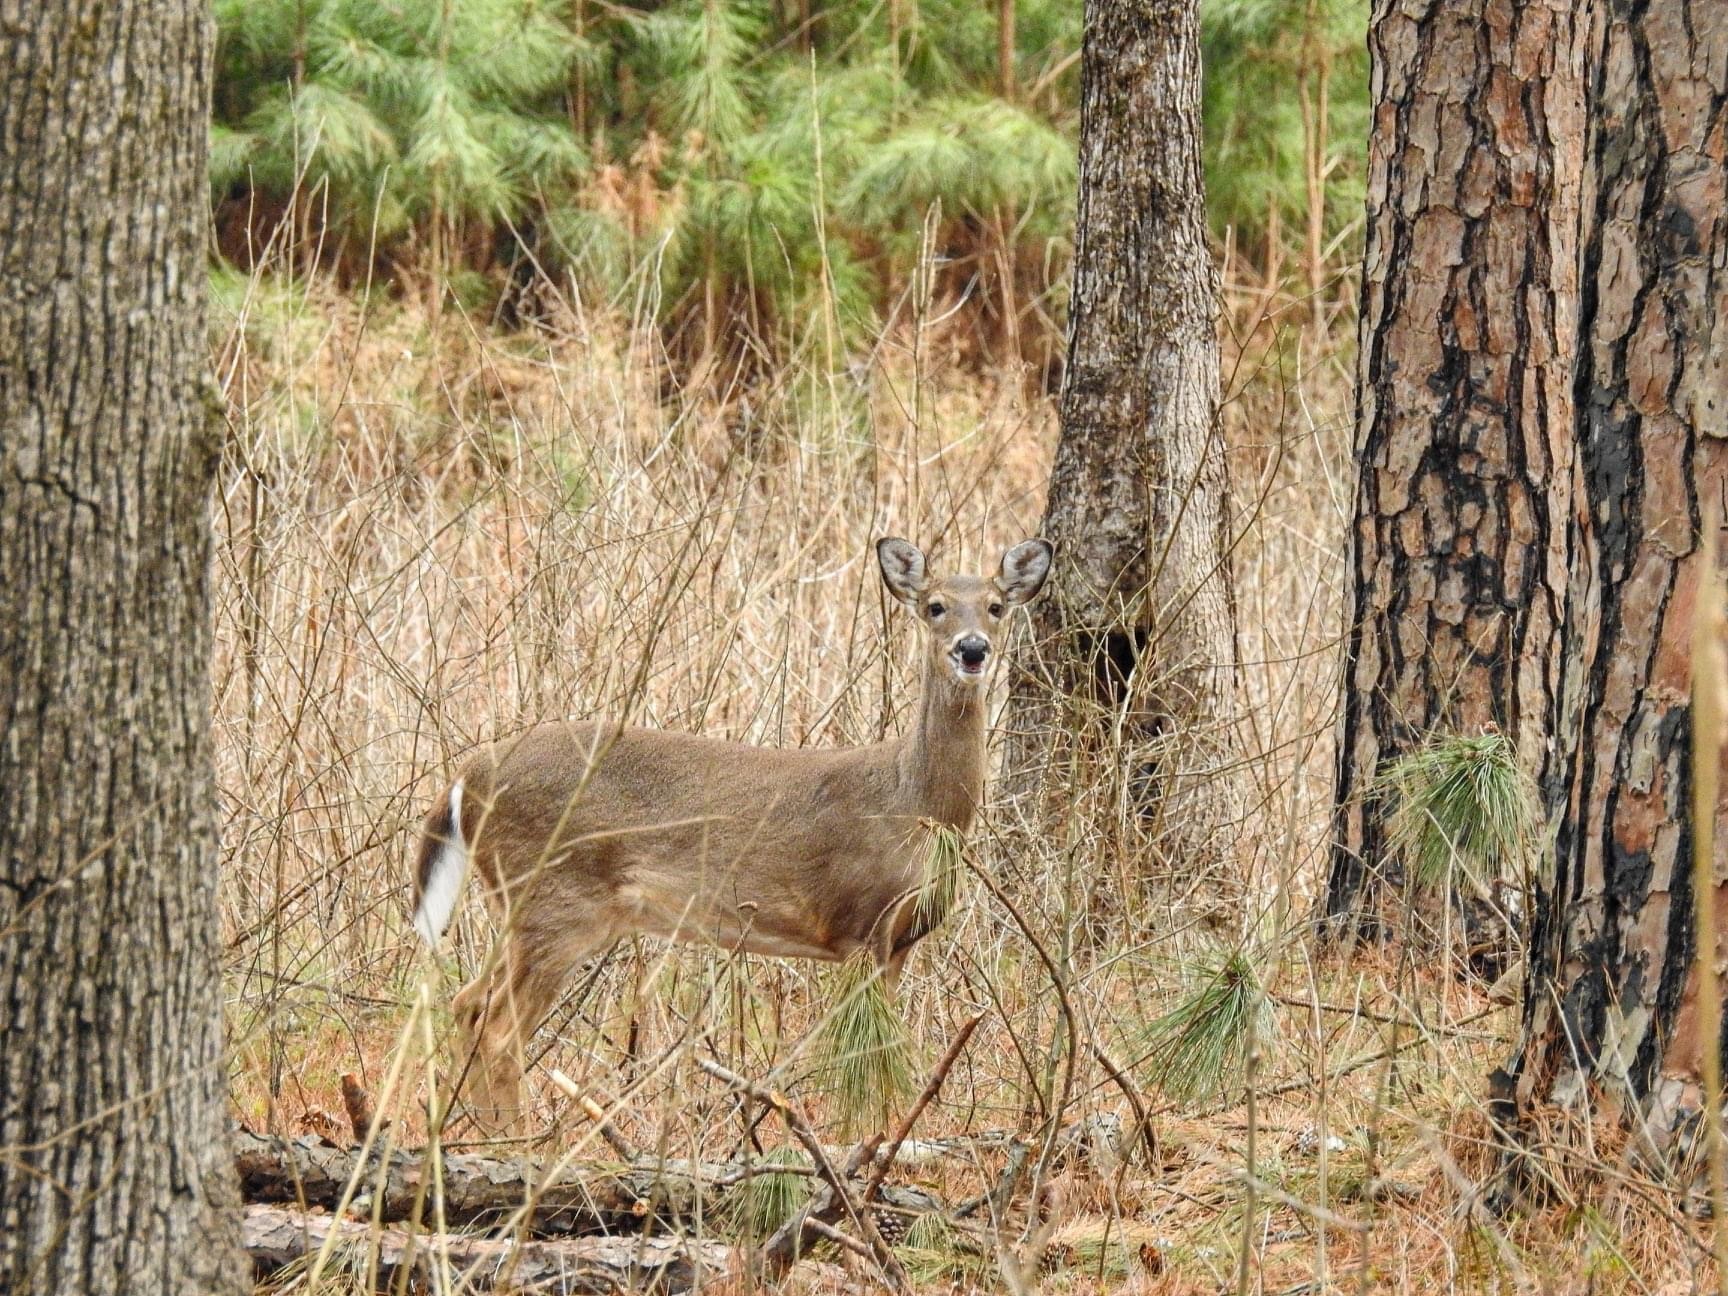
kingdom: Animalia
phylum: Chordata
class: Mammalia
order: Artiodactyla
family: Cervidae
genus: Odocoileus
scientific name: Odocoileus virginianus
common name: White-tailed deer
